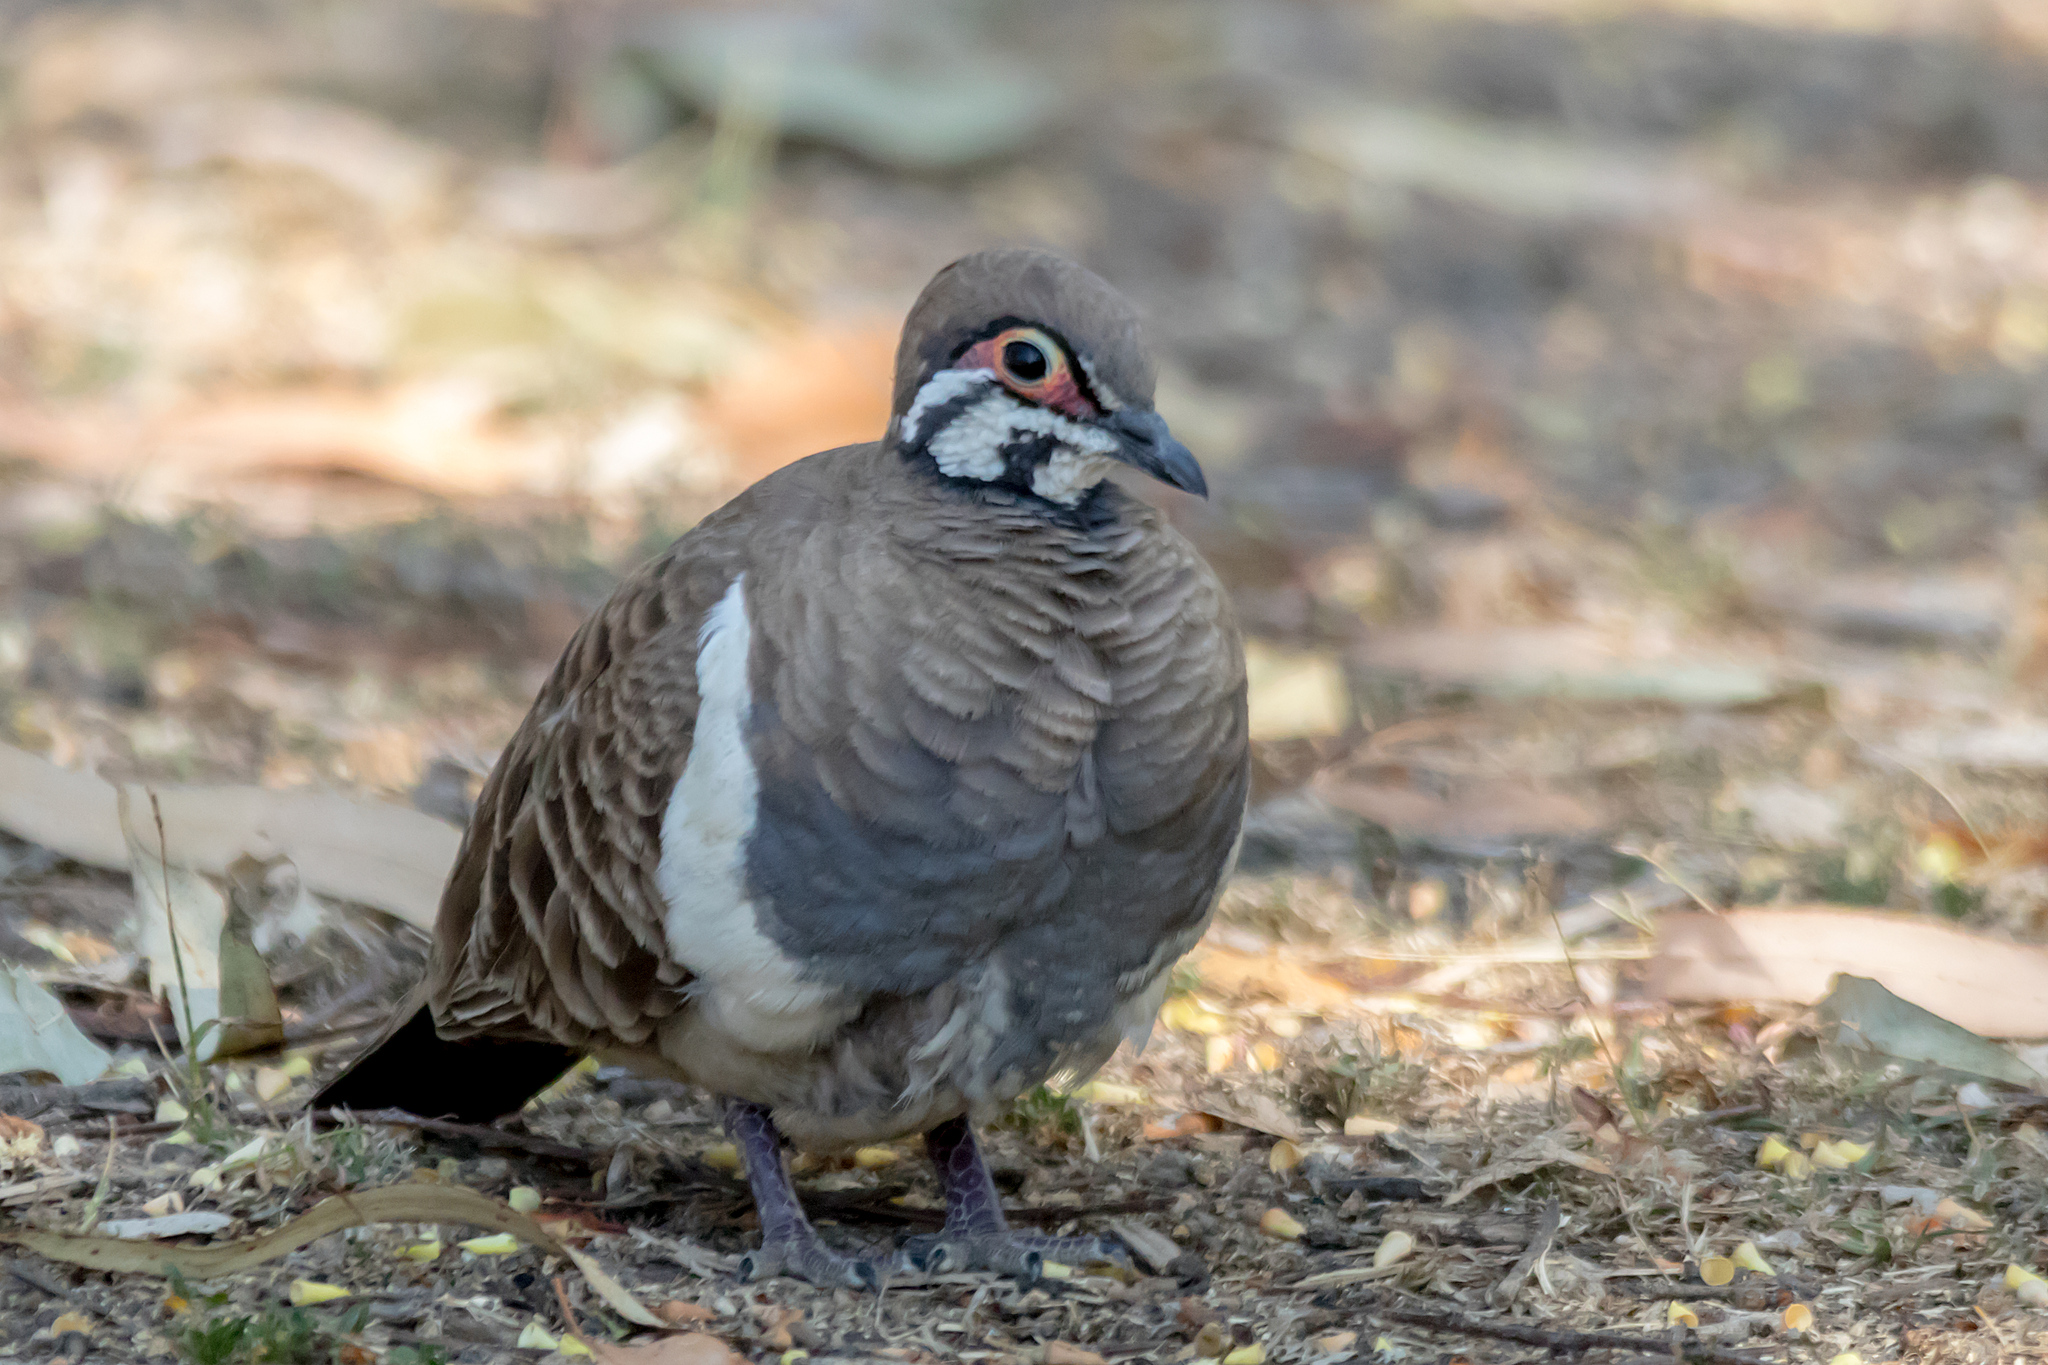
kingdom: Animalia
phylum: Chordata
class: Aves
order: Columbiformes
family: Columbidae
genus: Geophaps
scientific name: Geophaps scripta
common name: Squatter pigeon
